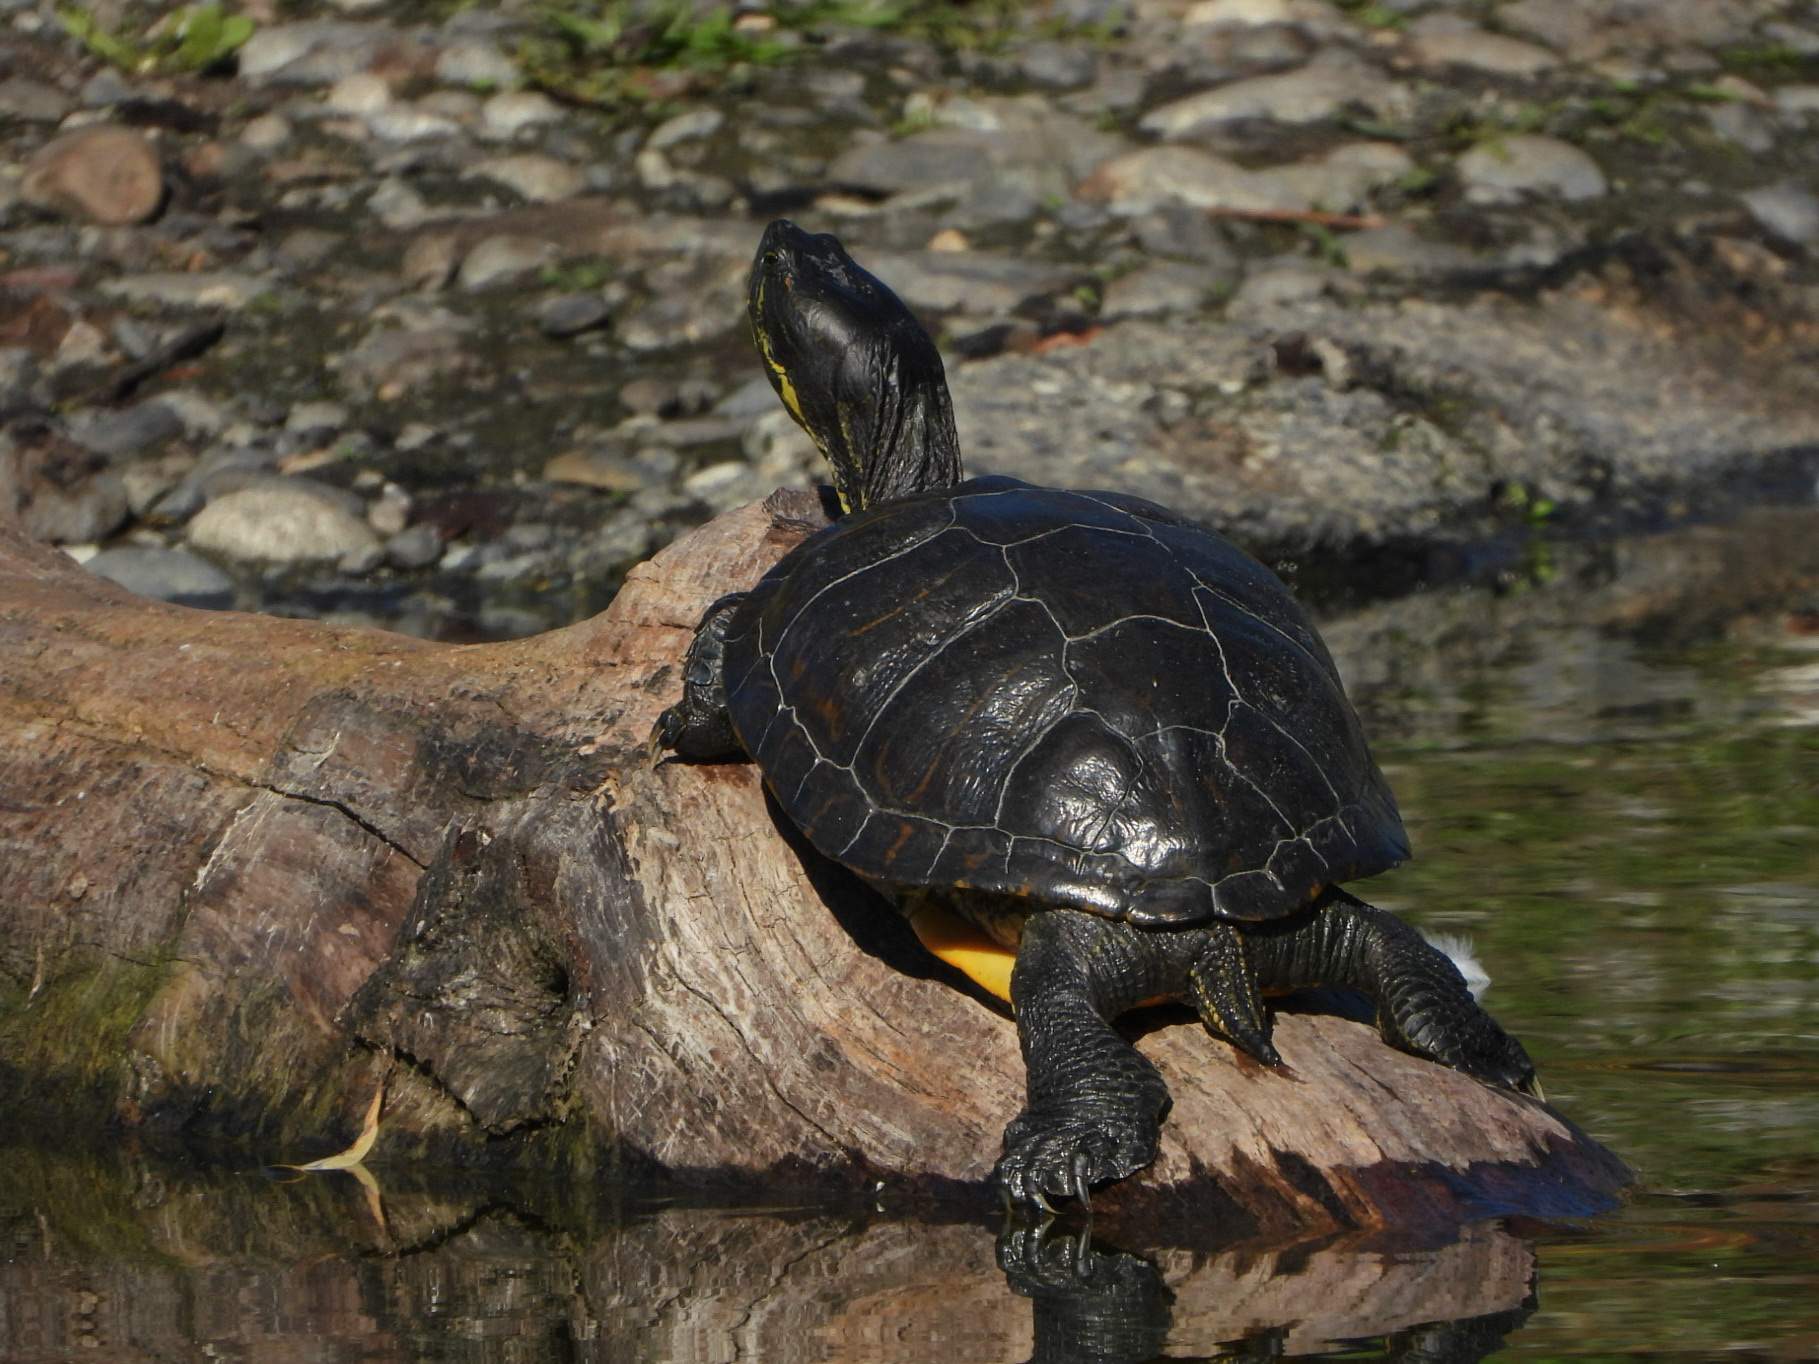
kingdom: Animalia
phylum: Chordata
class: Testudines
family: Emydidae
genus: Trachemys
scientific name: Trachemys scripta
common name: Slider
